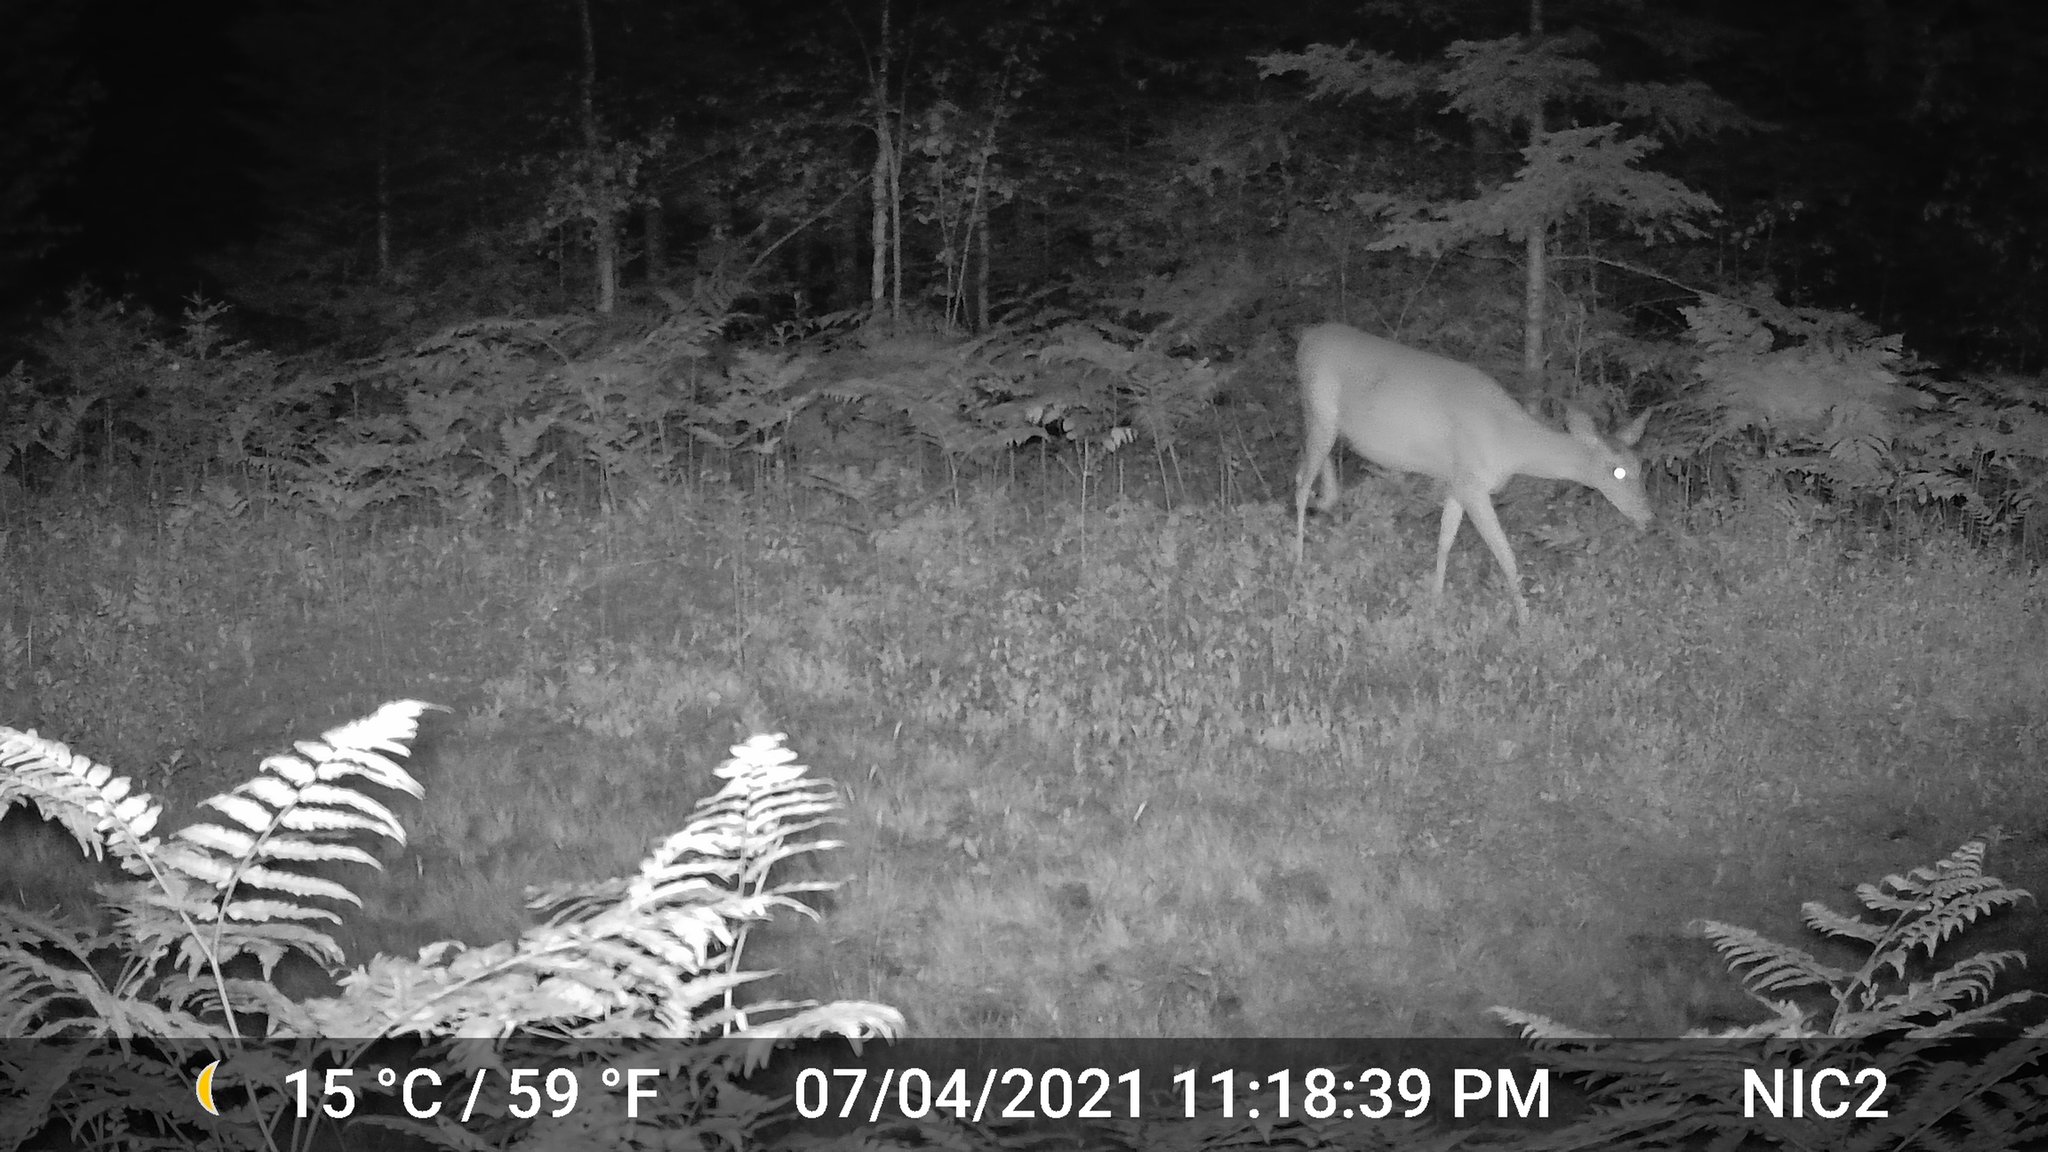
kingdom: Animalia
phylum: Chordata
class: Mammalia
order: Artiodactyla
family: Cervidae
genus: Odocoileus
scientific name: Odocoileus virginianus
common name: White-tailed deer
